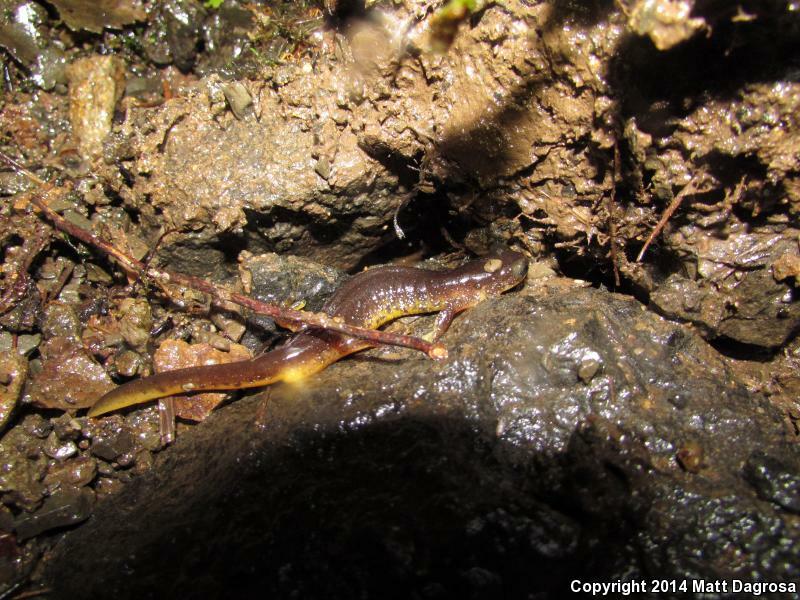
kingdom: Animalia
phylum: Chordata
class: Amphibia
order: Caudata
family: Rhyacotritonidae
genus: Rhyacotriton
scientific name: Rhyacotriton kezeri
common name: Columbia torrent salamander
